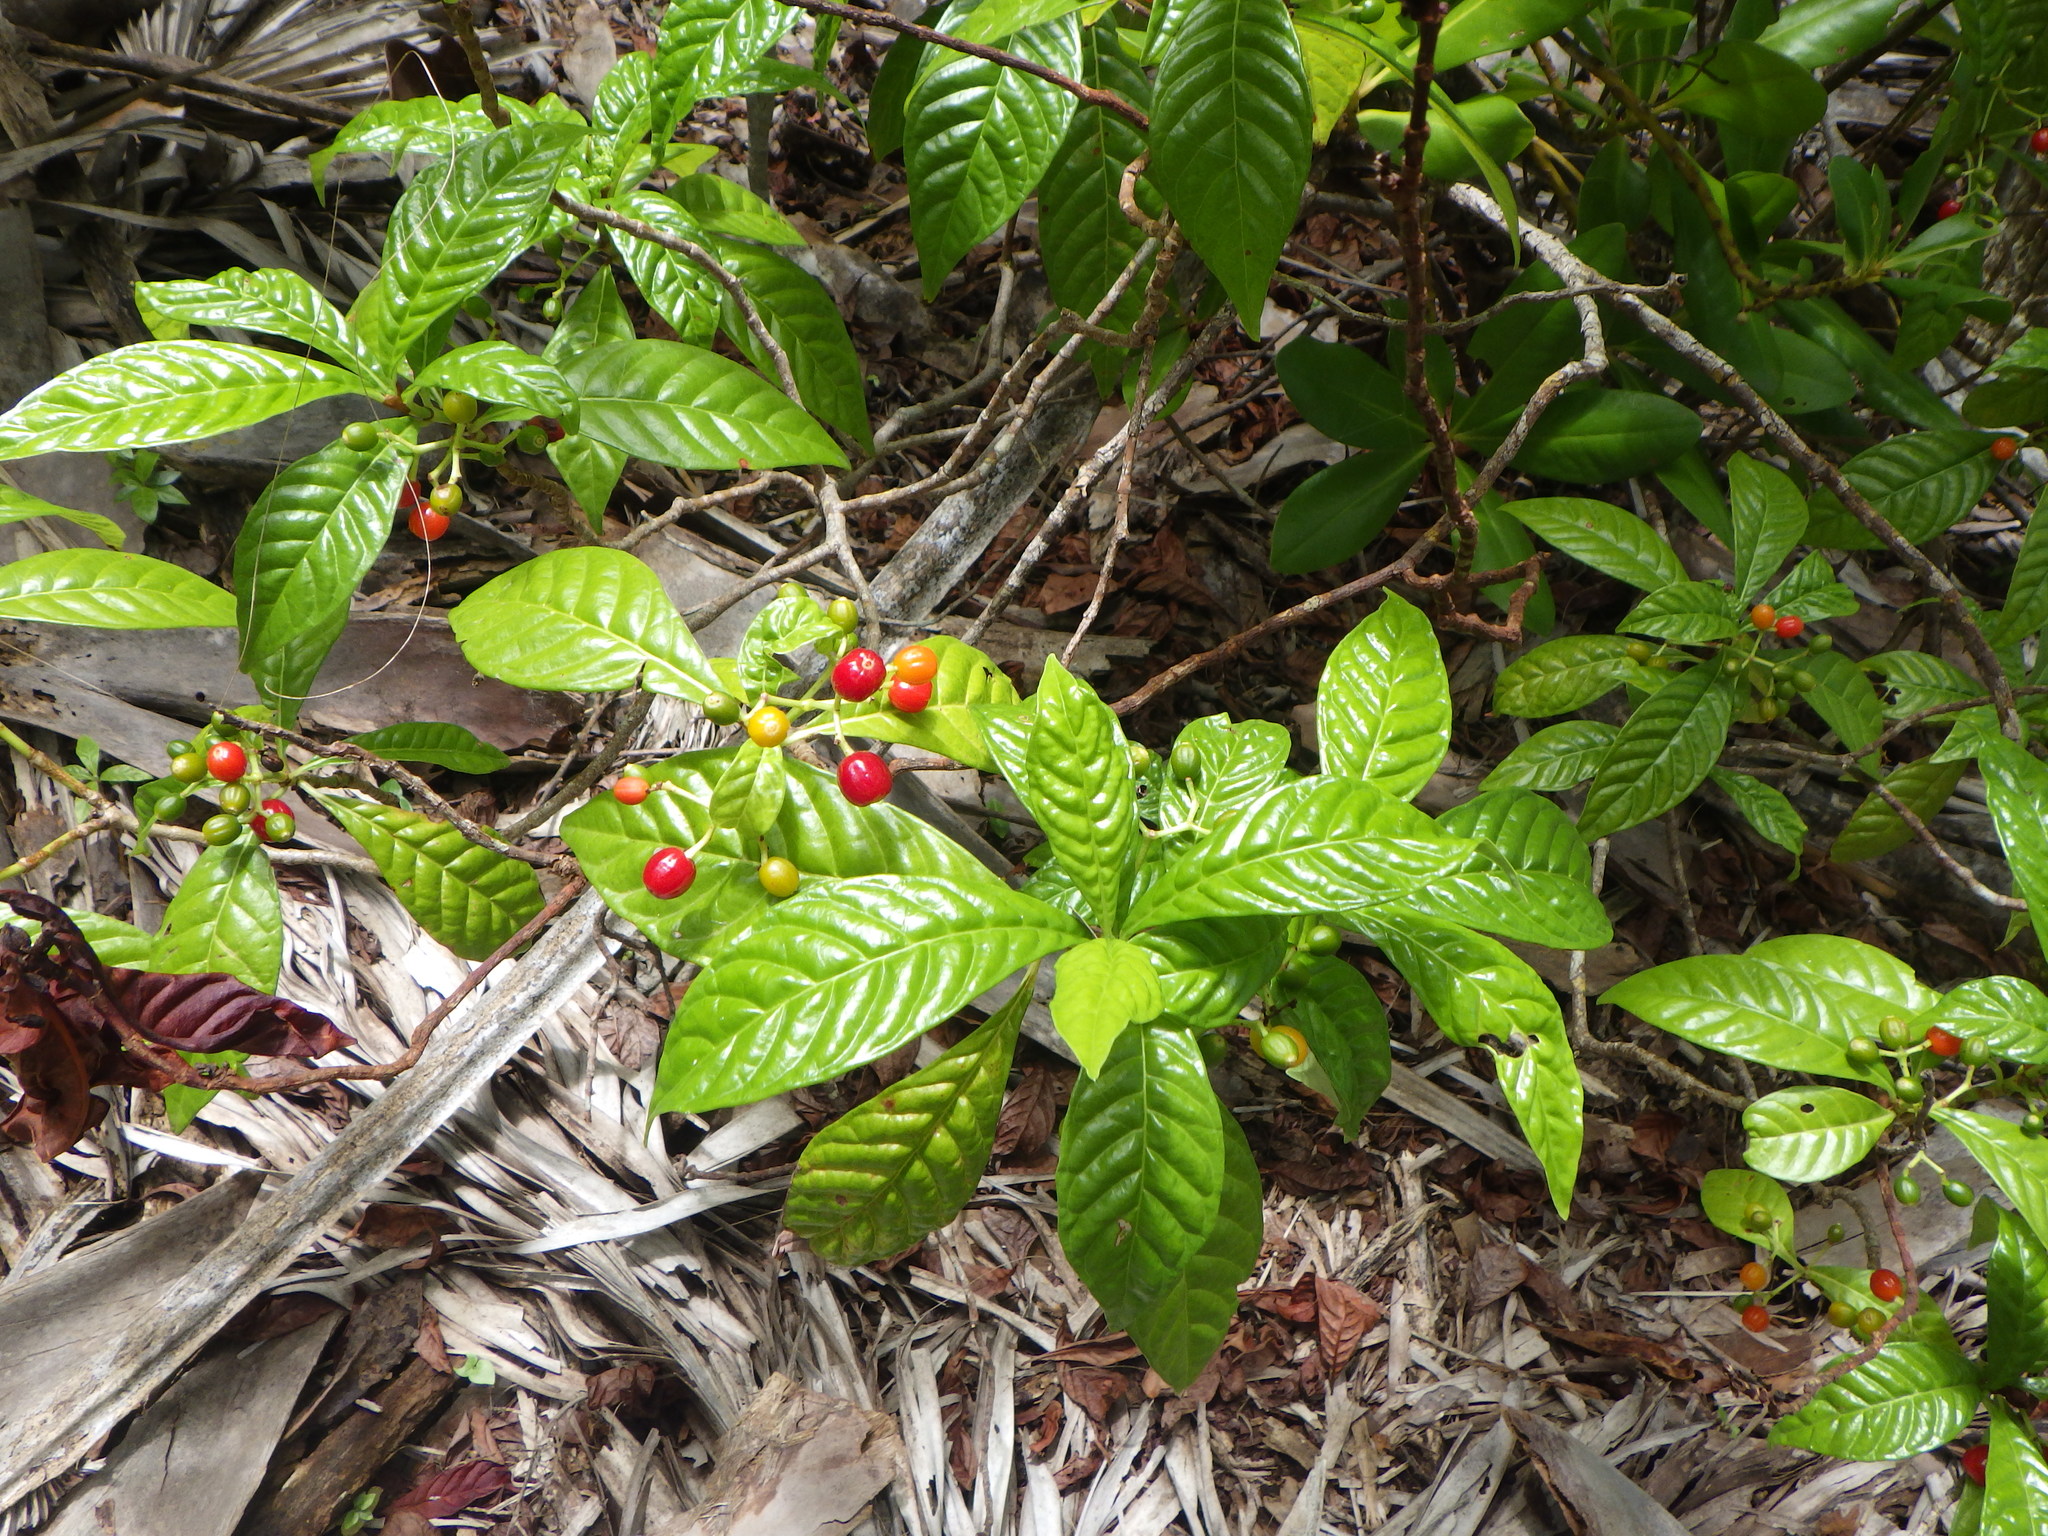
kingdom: Plantae
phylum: Tracheophyta
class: Magnoliopsida
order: Gentianales
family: Rubiaceae
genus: Psychotria
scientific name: Psychotria nervosa
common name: Bastard cankerberry
